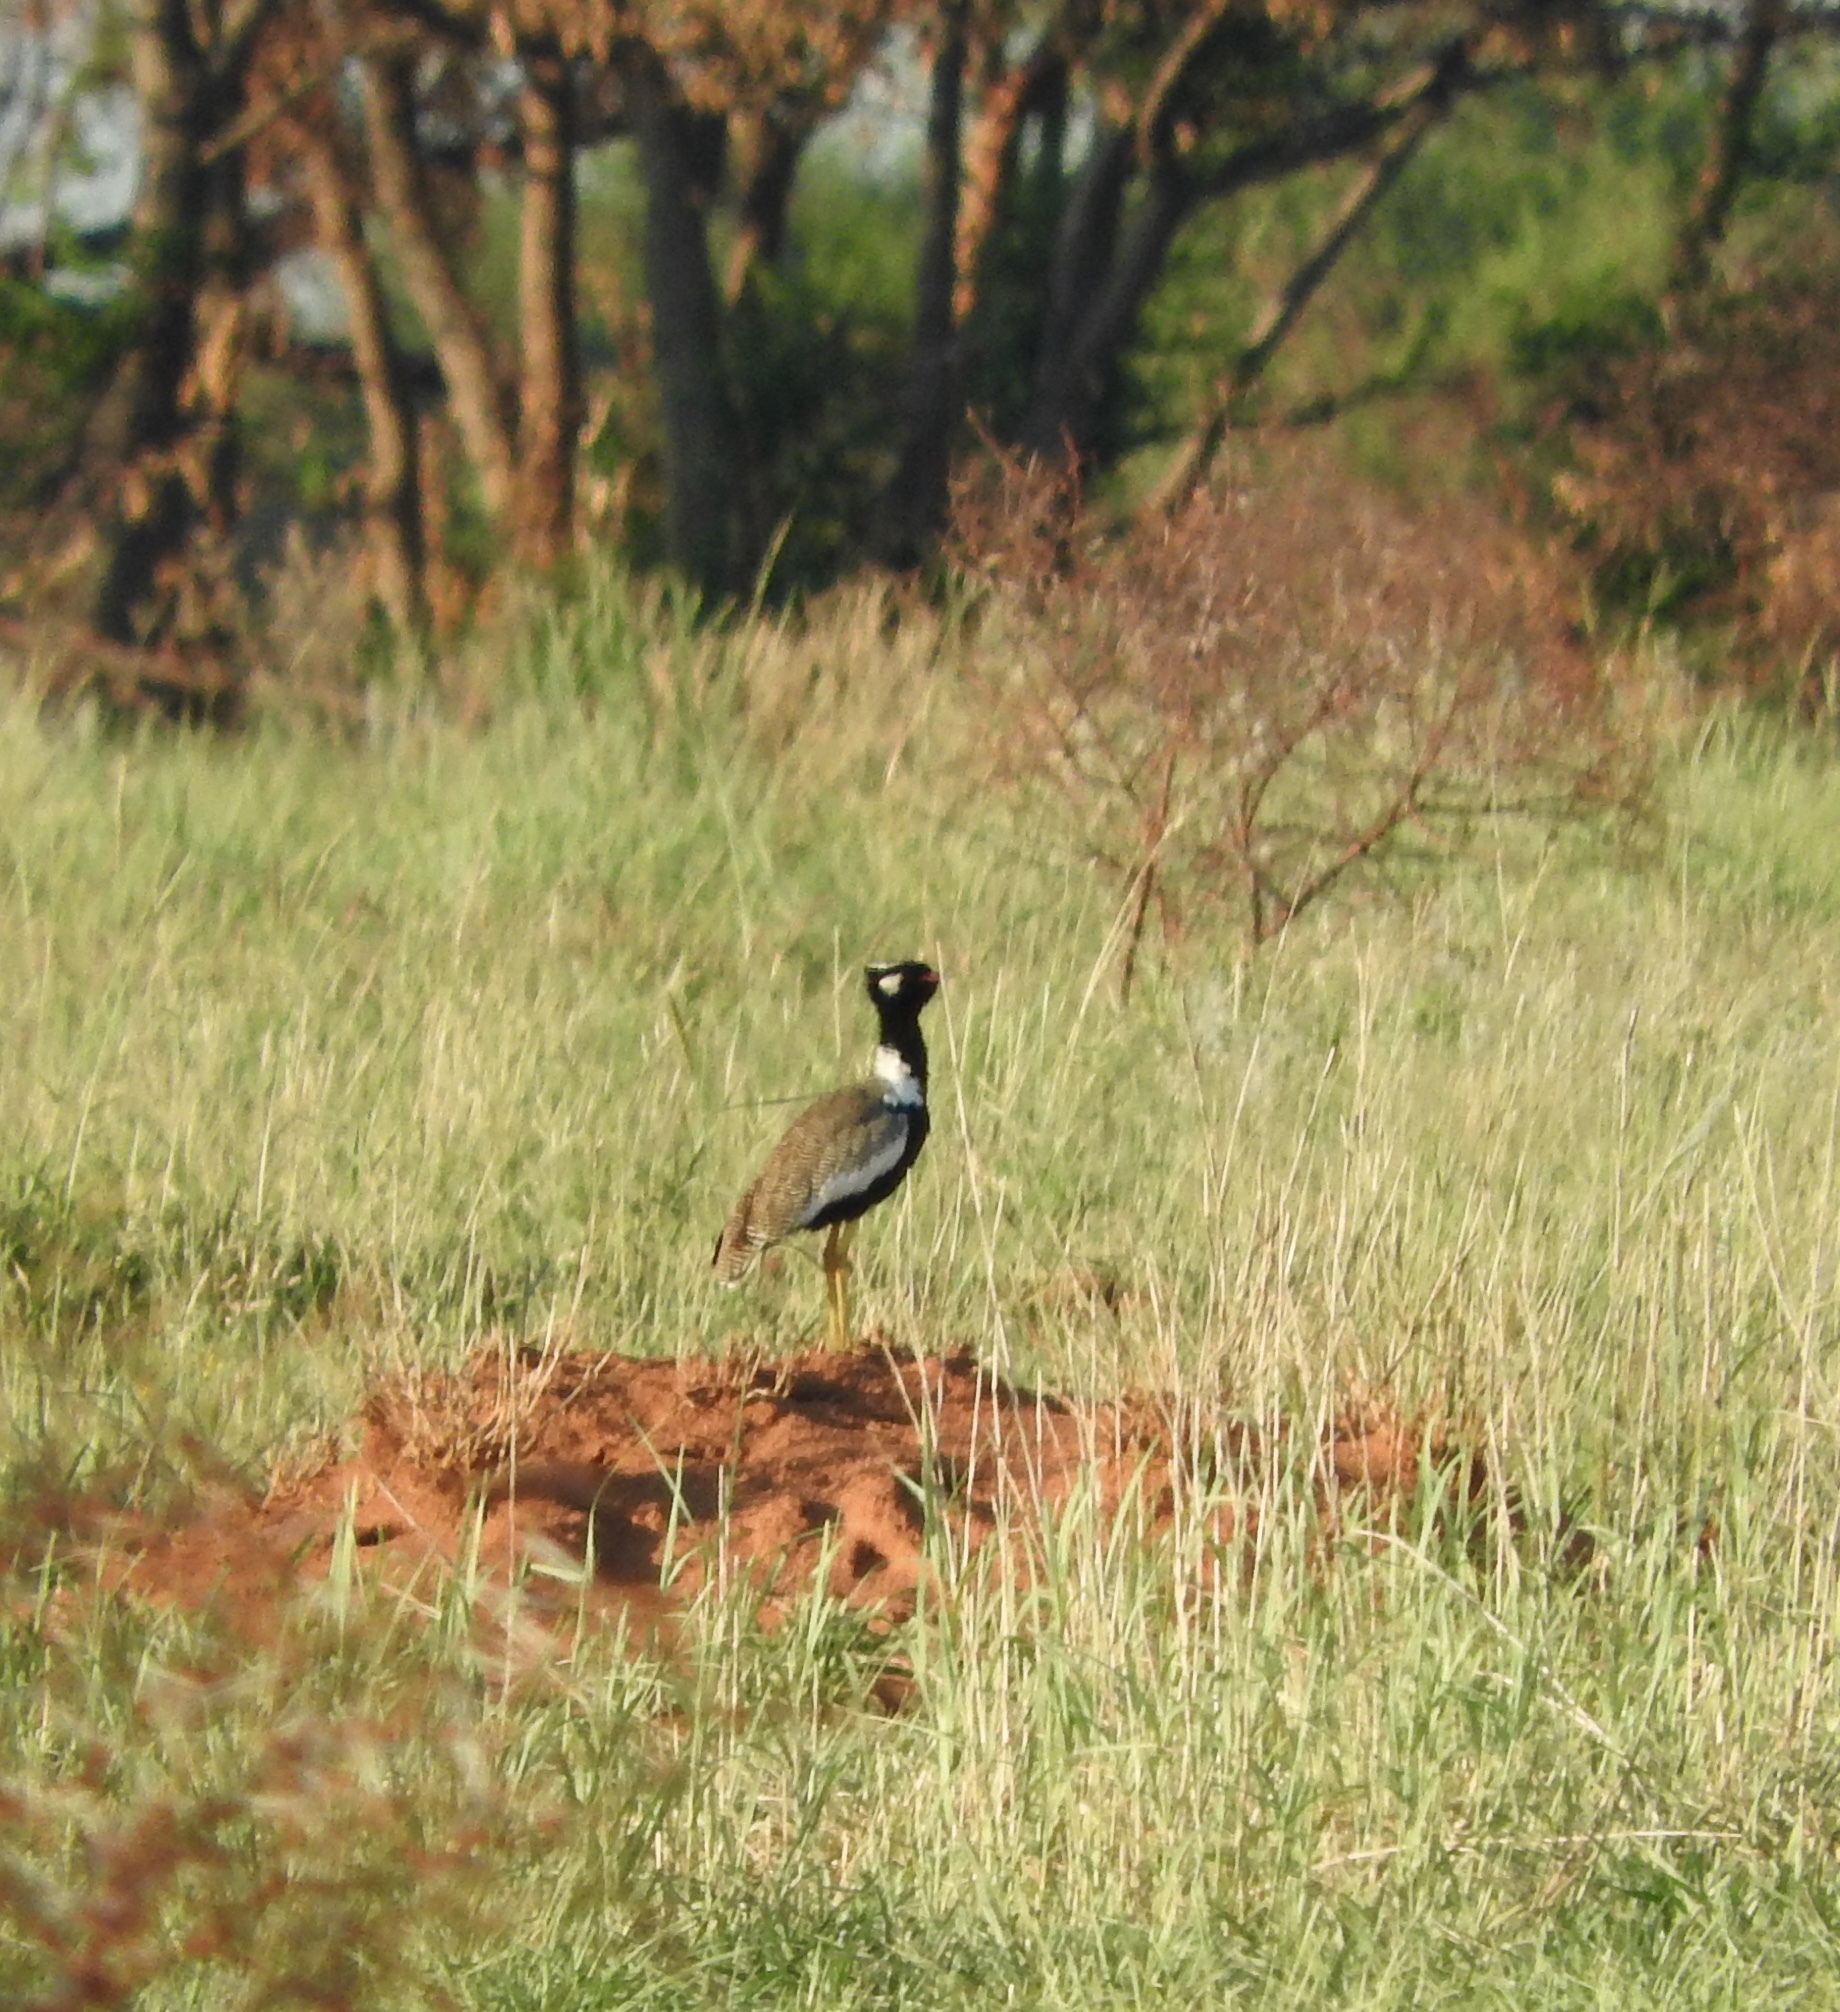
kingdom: Animalia
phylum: Chordata
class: Aves
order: Otidiformes
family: Otididae
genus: Afrotis
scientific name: Afrotis afraoides
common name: Northern black korhaan
